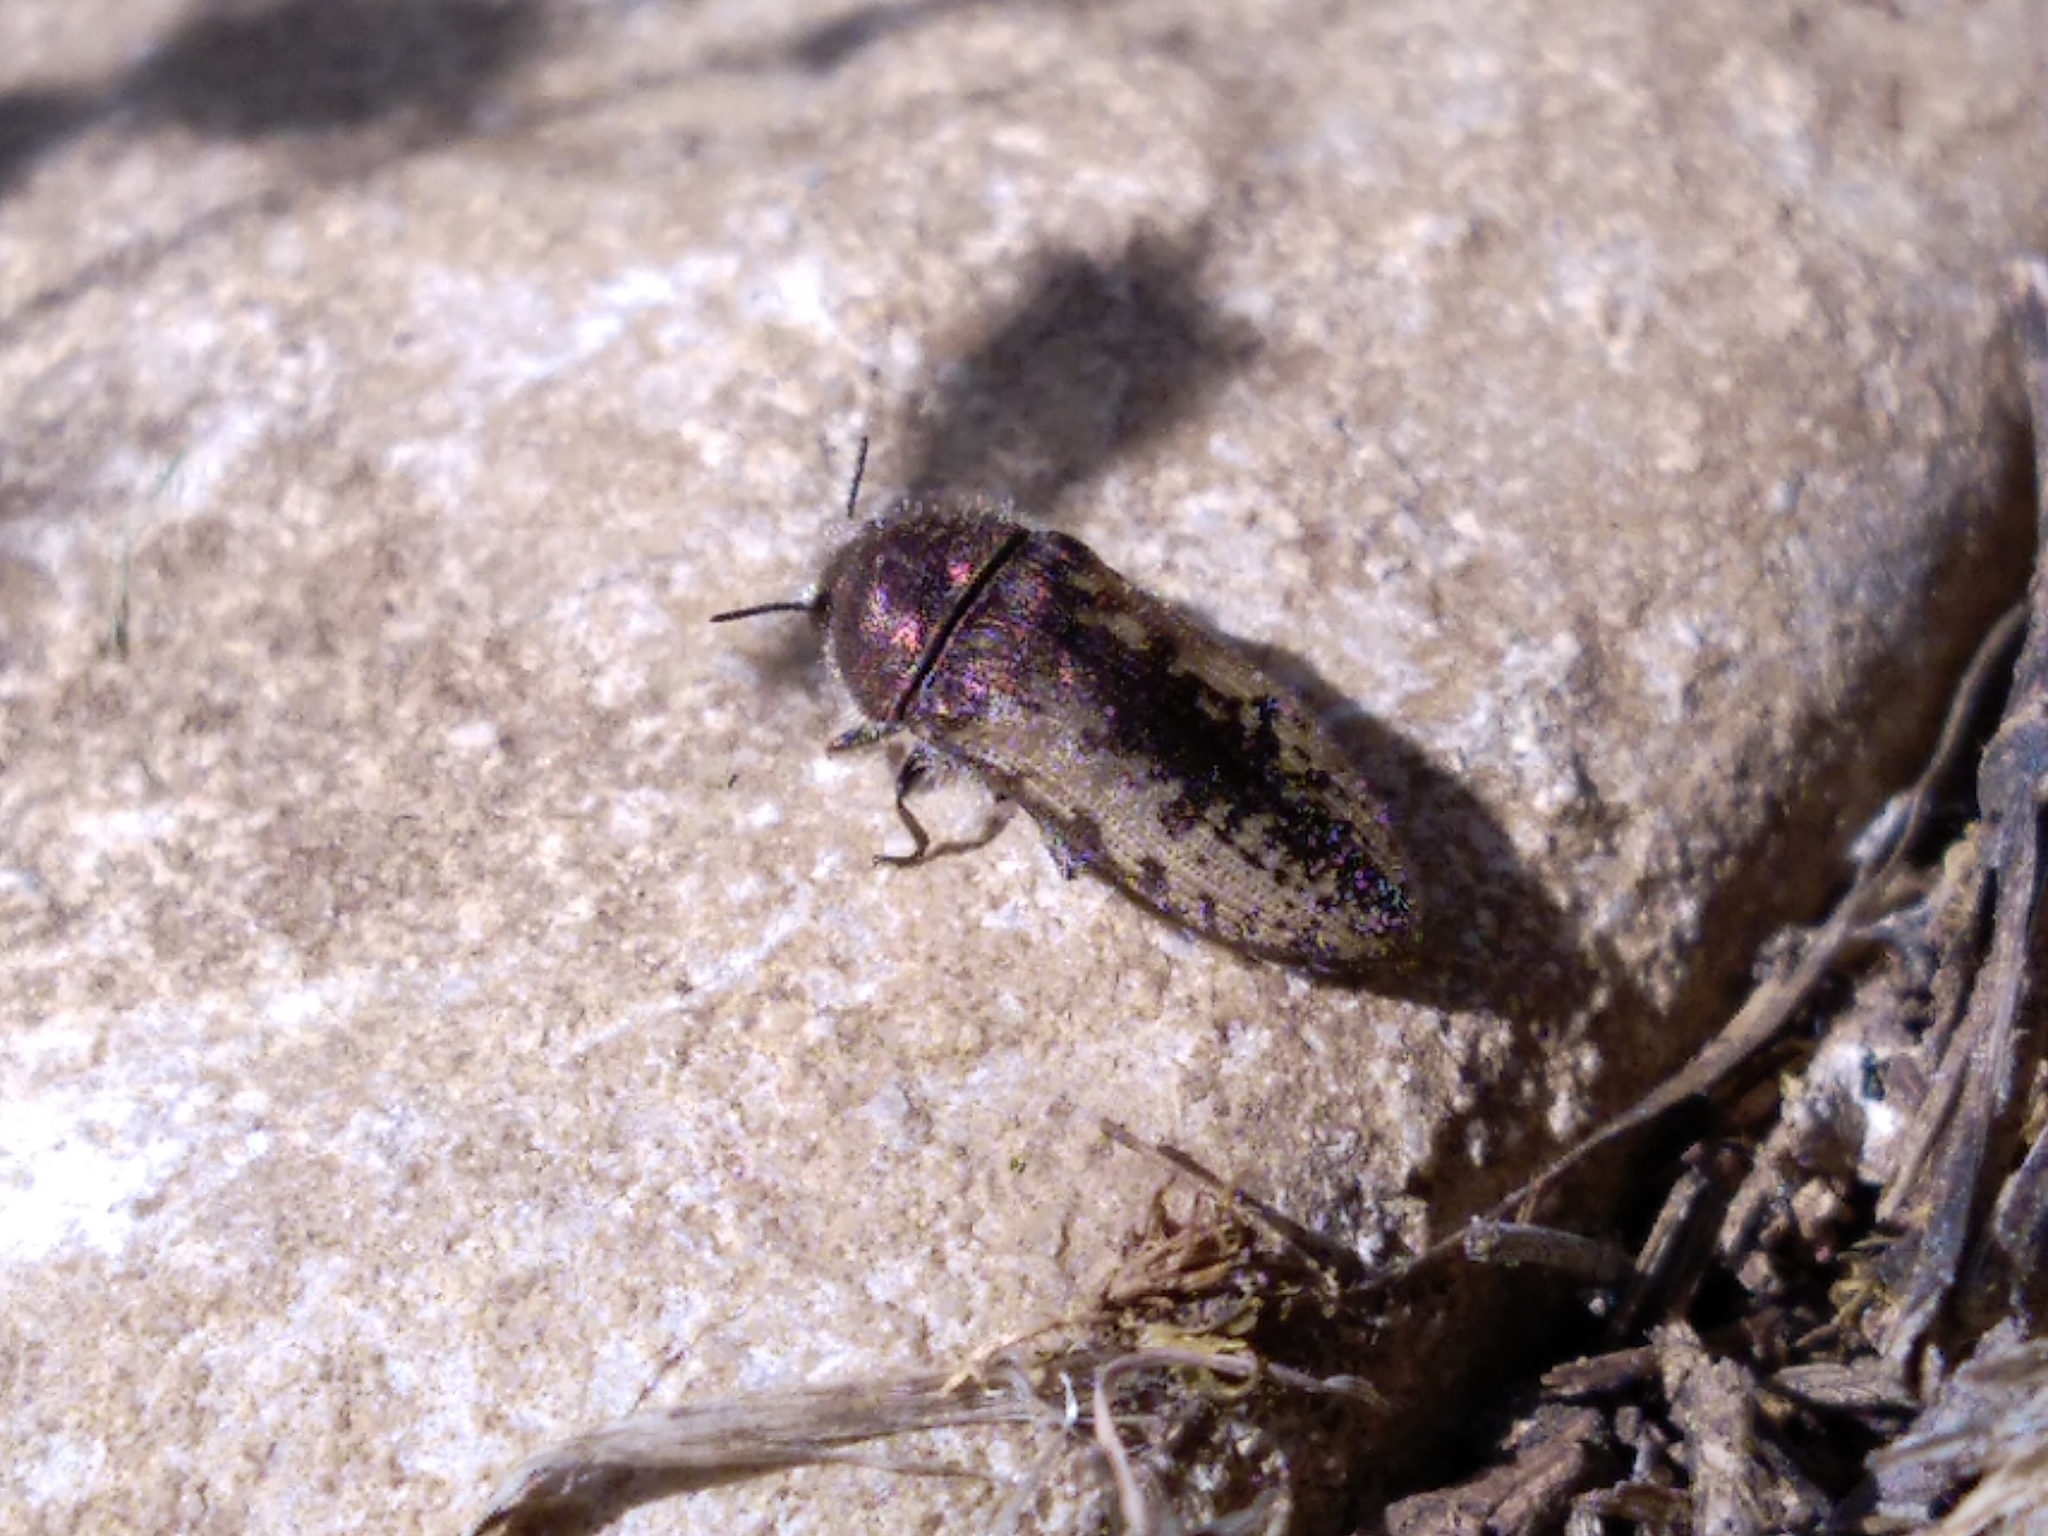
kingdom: Animalia
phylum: Arthropoda
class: Insecta
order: Coleoptera
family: Buprestidae
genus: Acmaeodera
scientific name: Acmaeodera pilosellae
